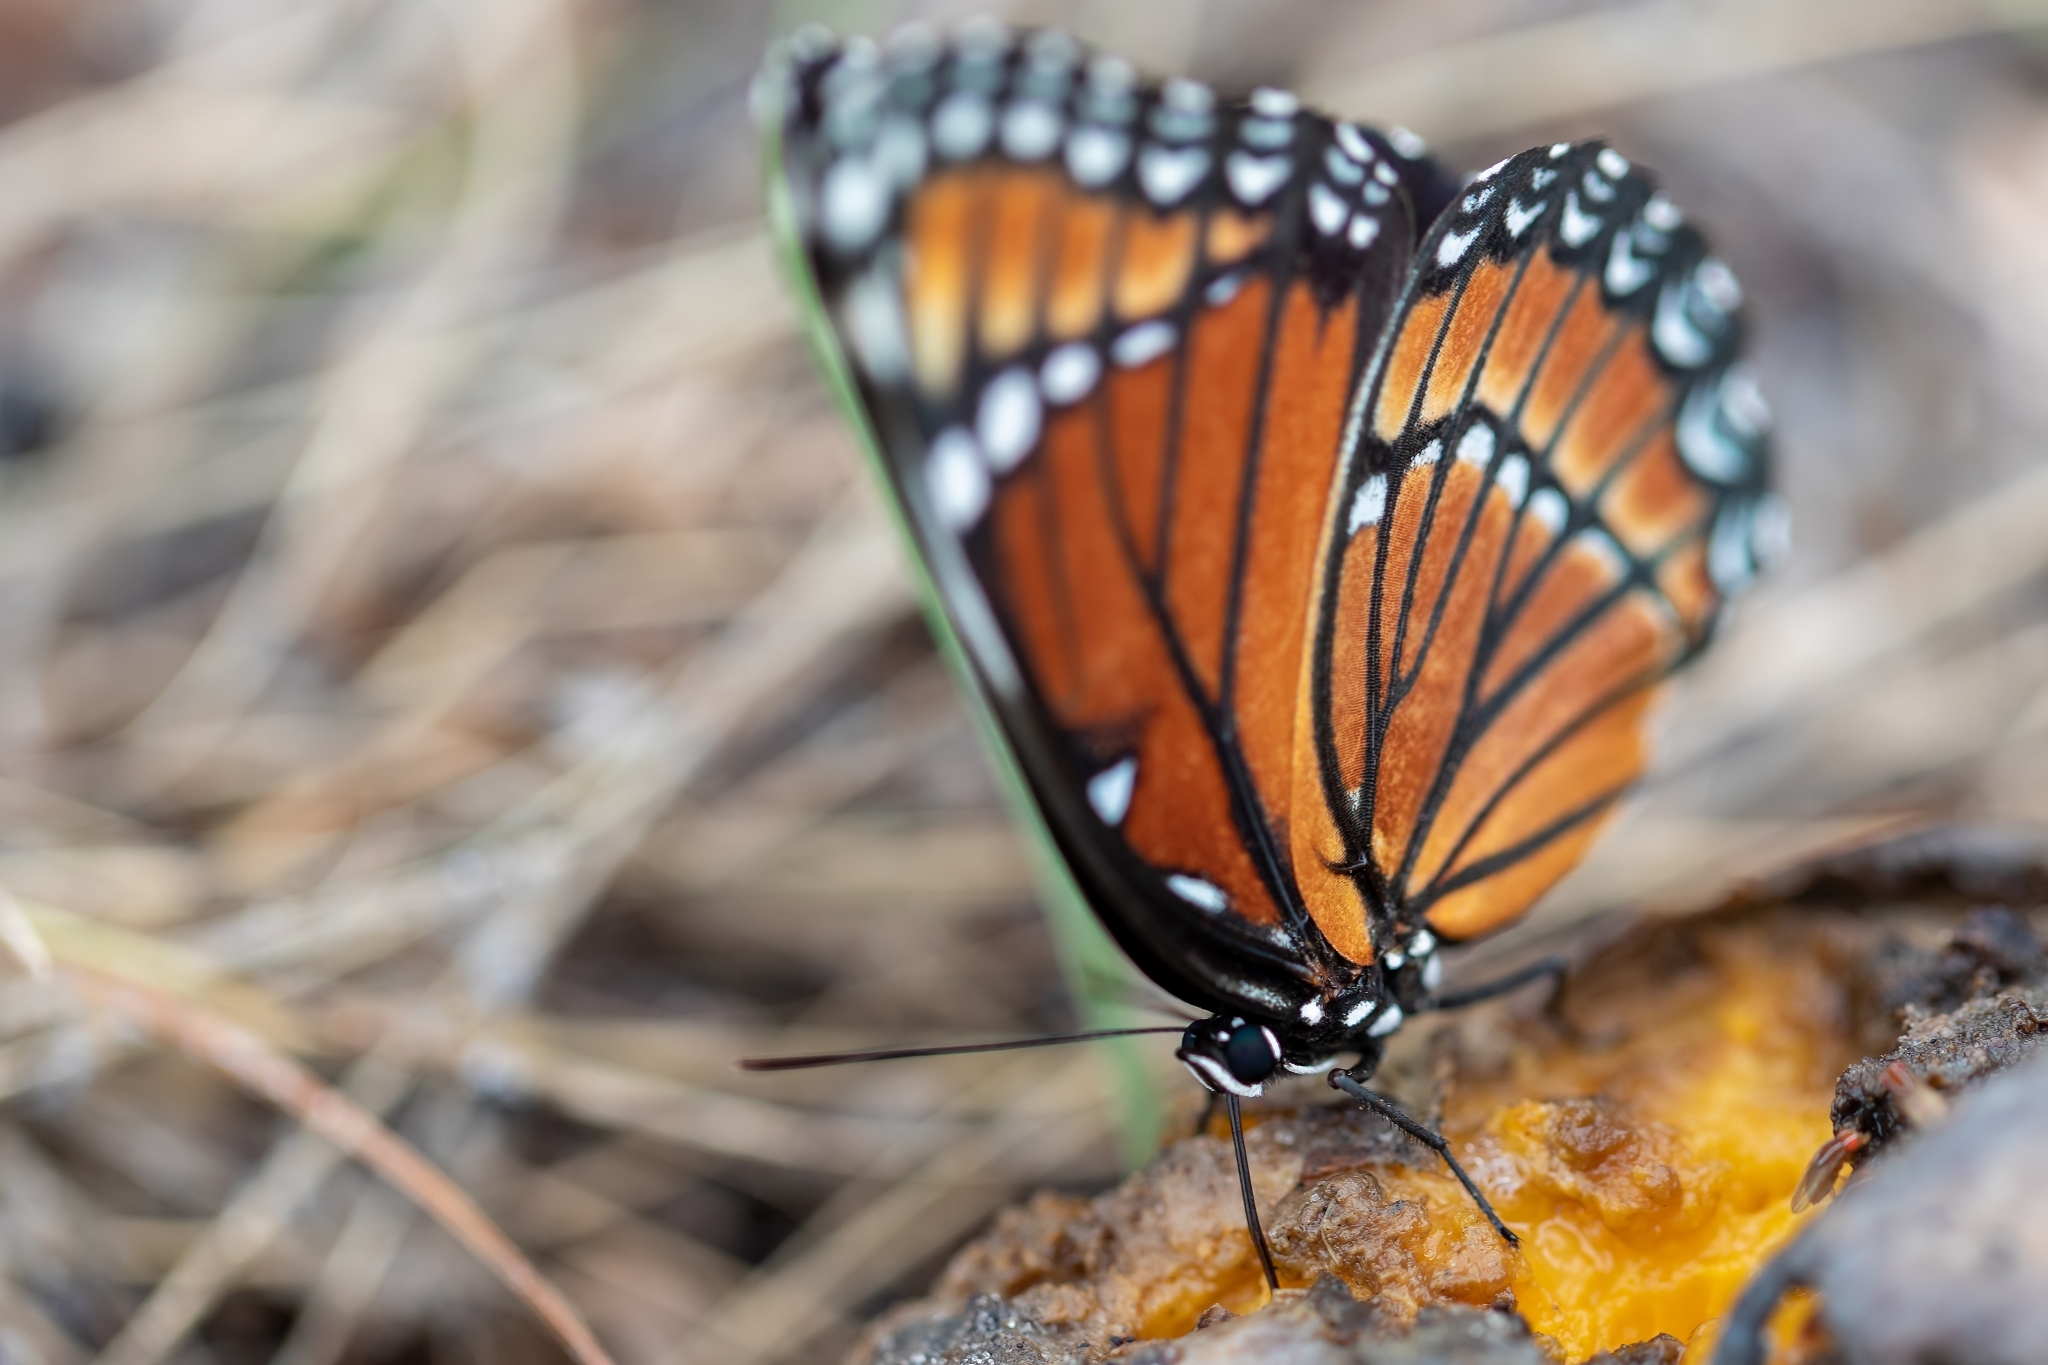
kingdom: Animalia
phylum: Arthropoda
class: Insecta
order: Lepidoptera
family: Nymphalidae
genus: Limenitis
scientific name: Limenitis archippus
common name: Viceroy
